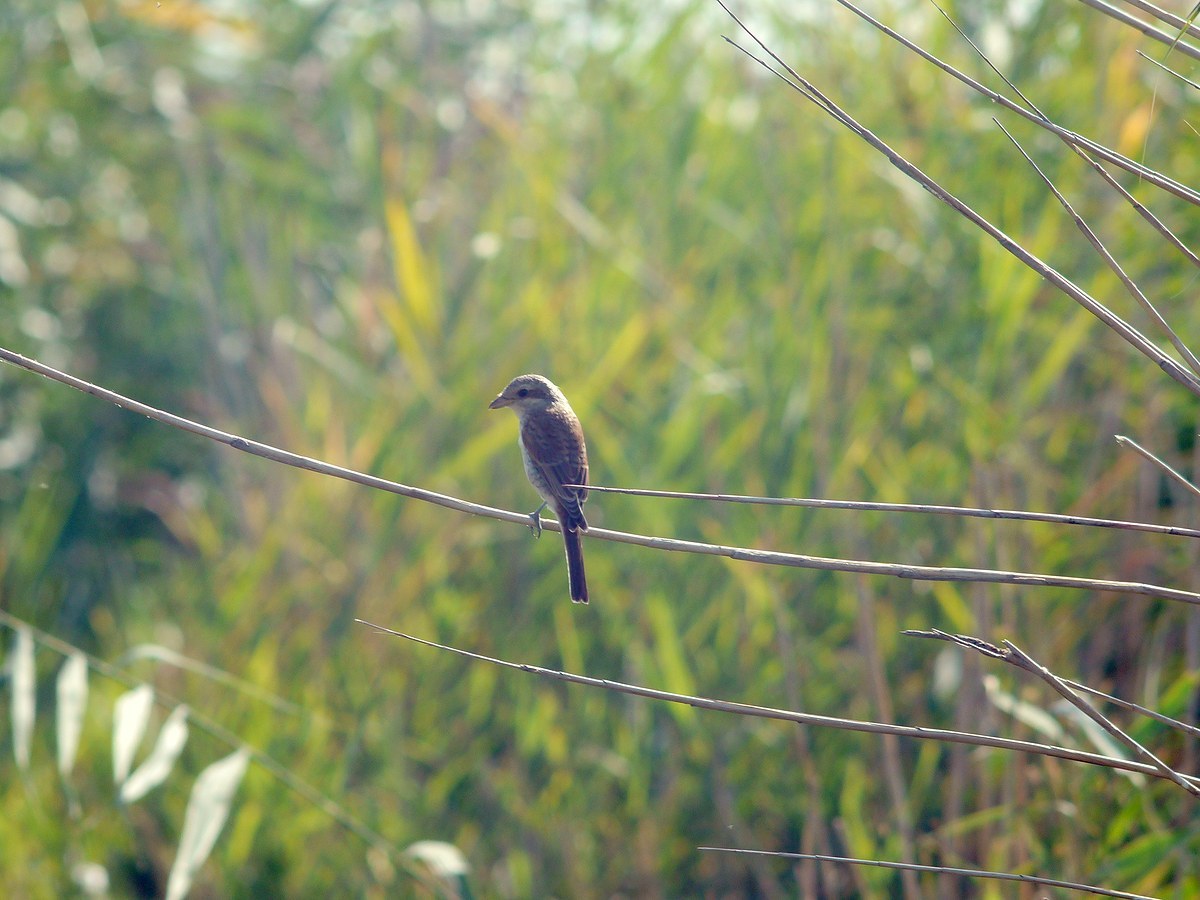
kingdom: Animalia
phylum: Chordata
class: Aves
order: Passeriformes
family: Laniidae
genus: Lanius
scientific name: Lanius collurio
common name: Red-backed shrike
